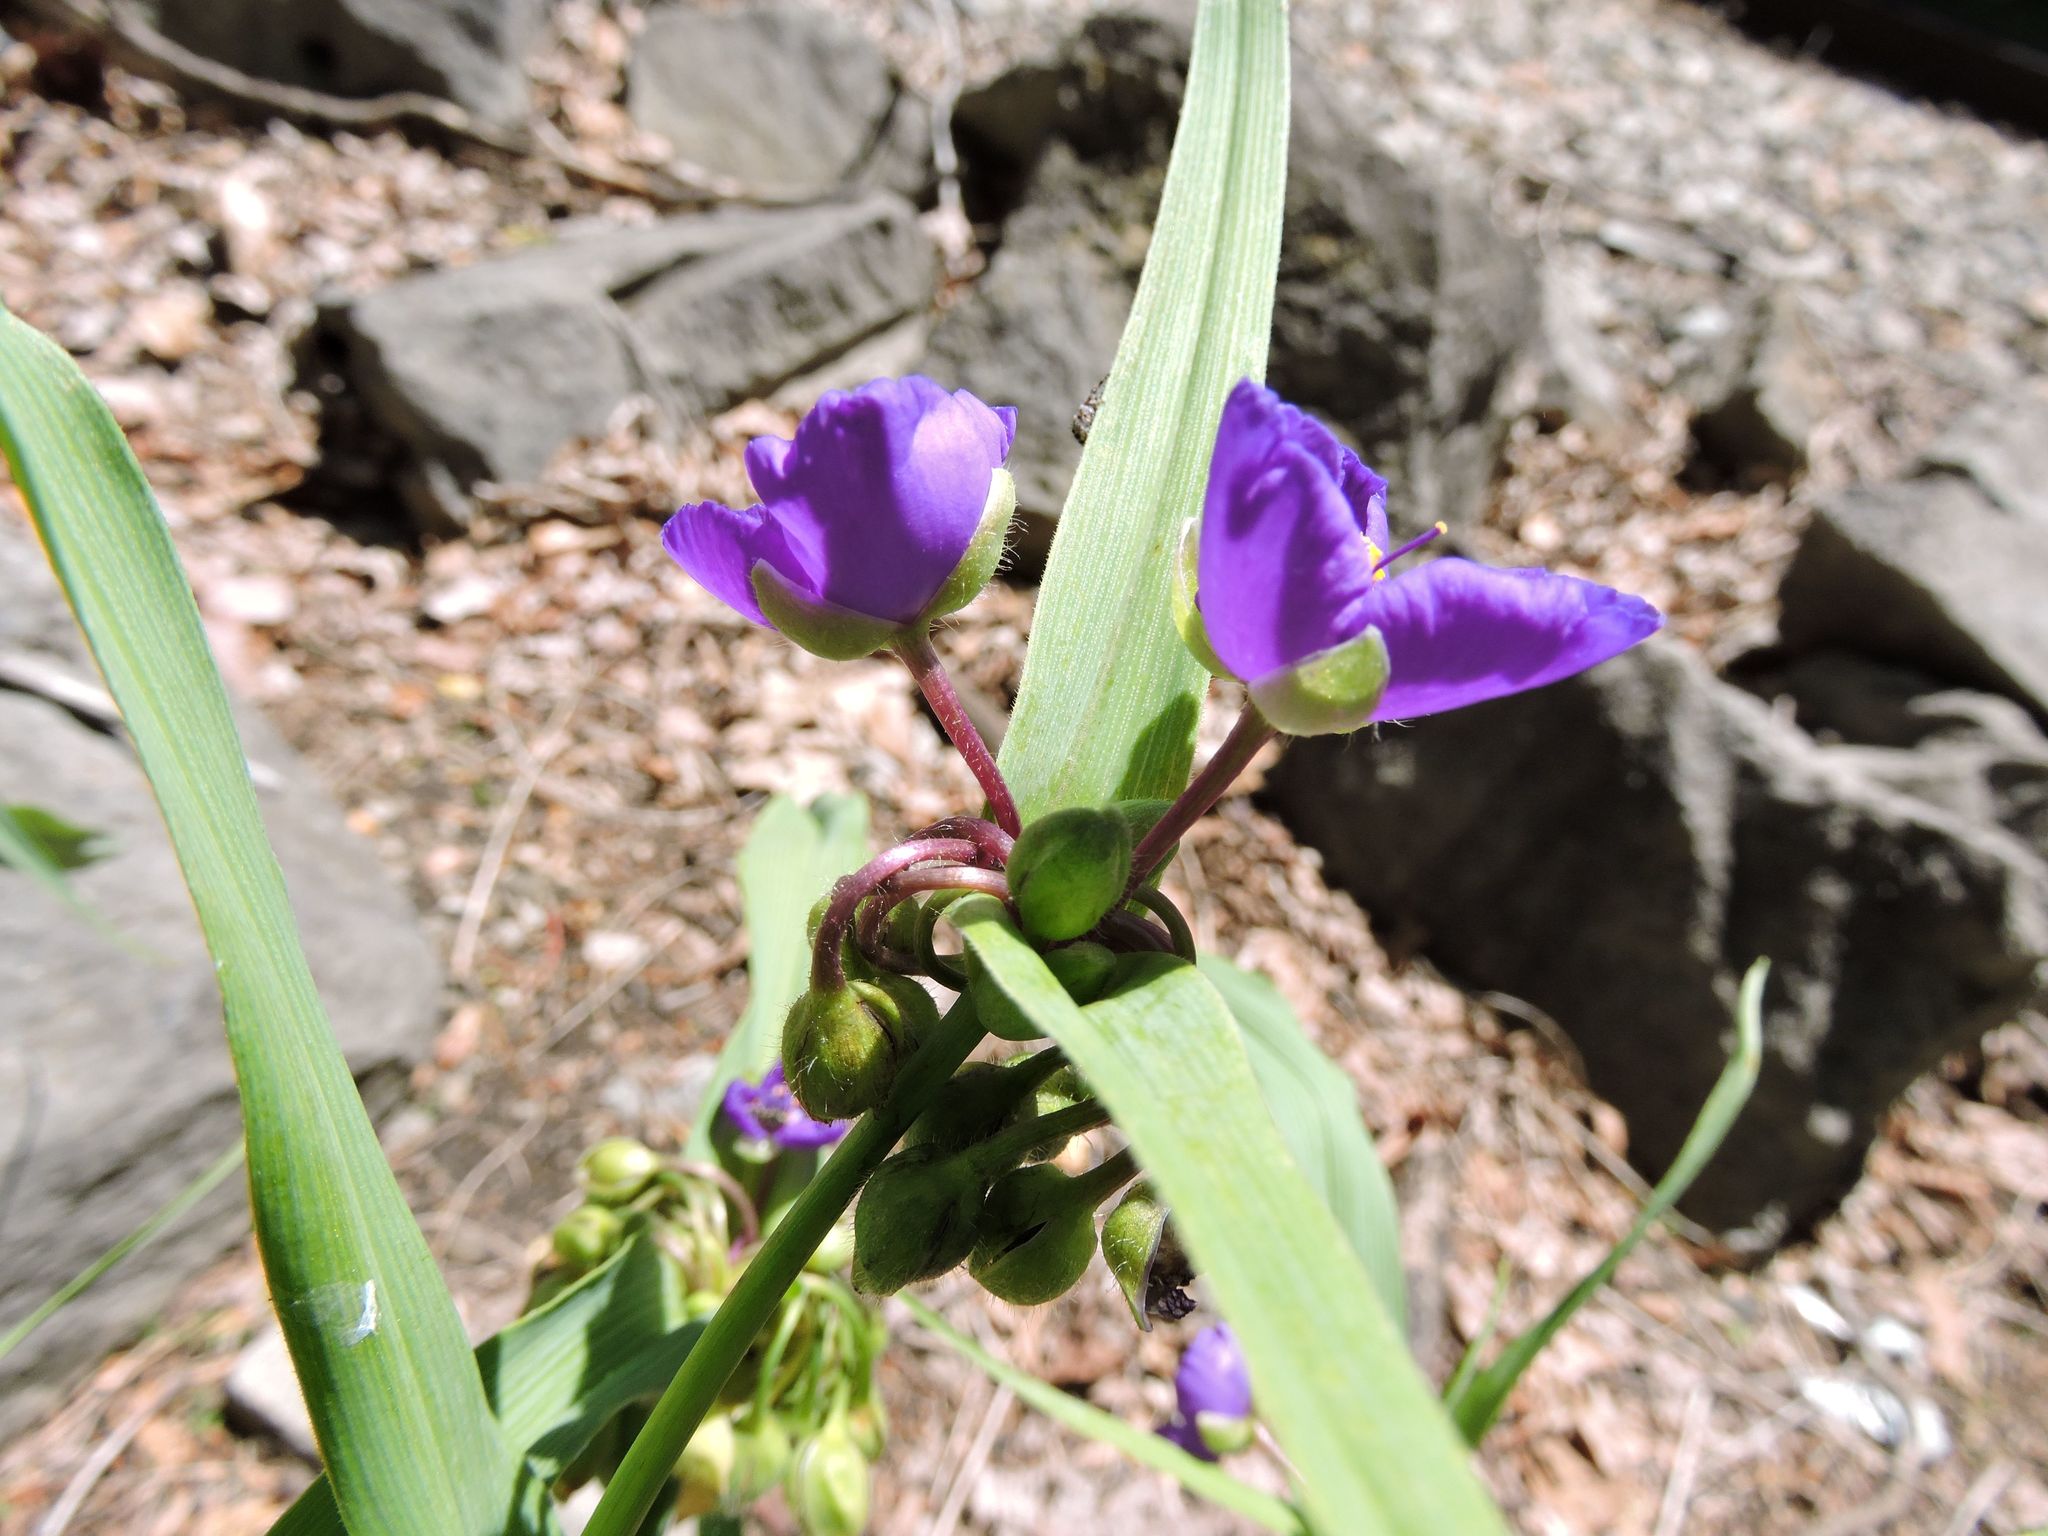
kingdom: Plantae
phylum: Tracheophyta
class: Liliopsida
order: Commelinales
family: Commelinaceae
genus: Tradescantia
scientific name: Tradescantia virginiana
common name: Spiderwort
